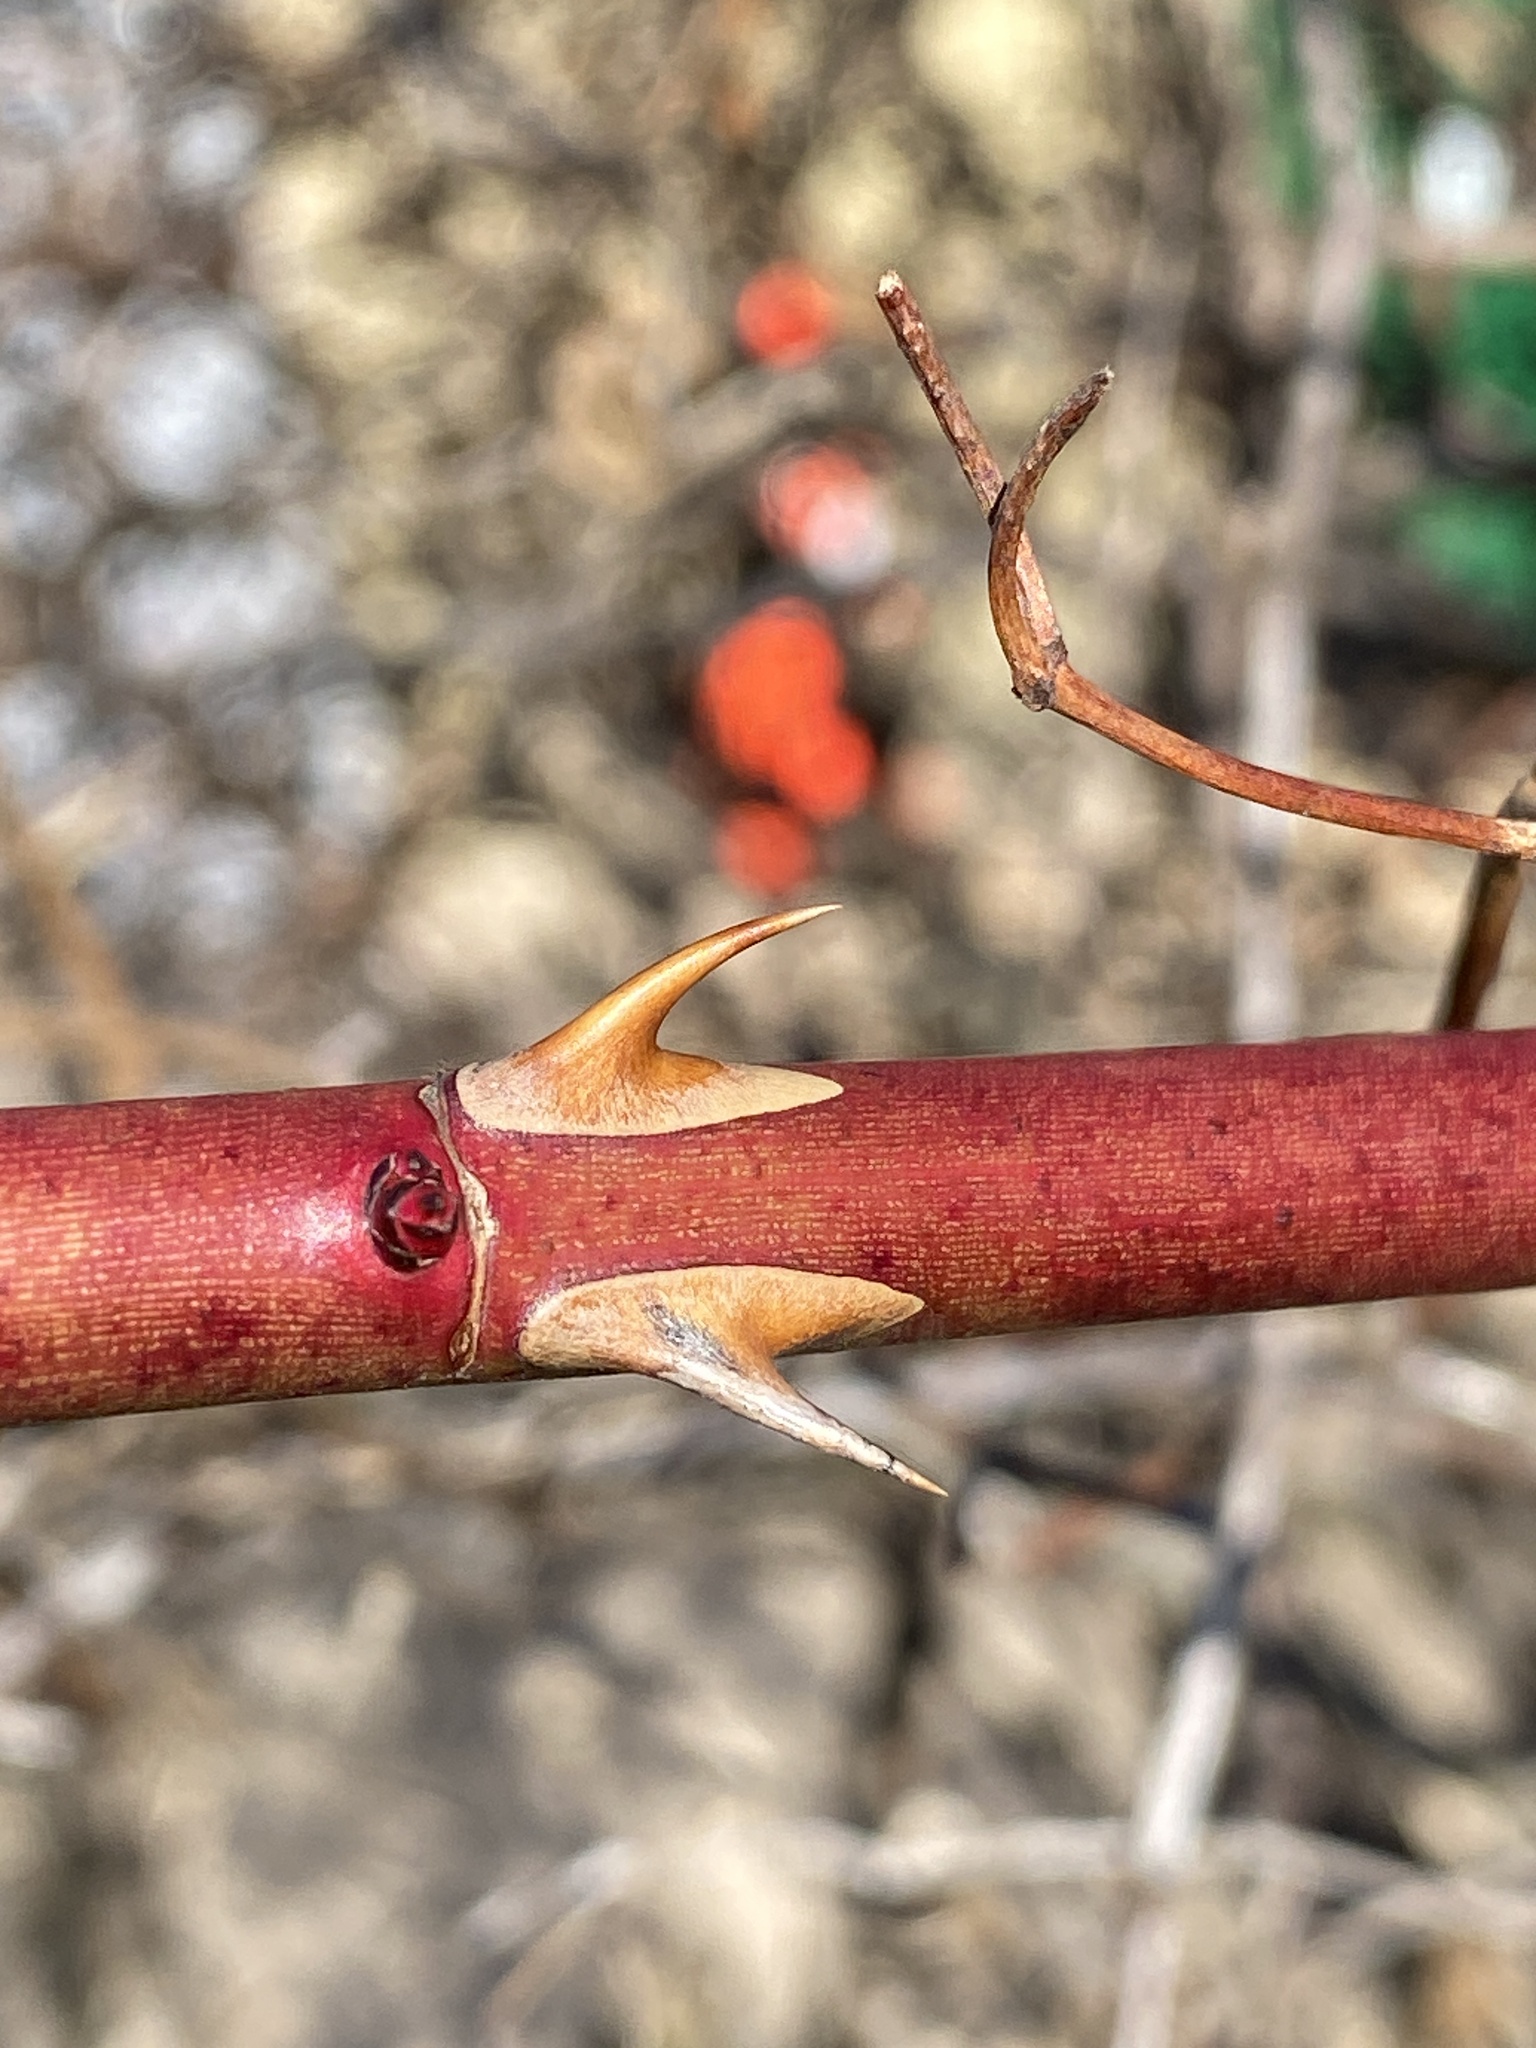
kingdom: Plantae
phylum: Tracheophyta
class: Magnoliopsida
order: Rosales
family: Rosaceae
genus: Rosa
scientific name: Rosa multiflora
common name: Multiflora rose
